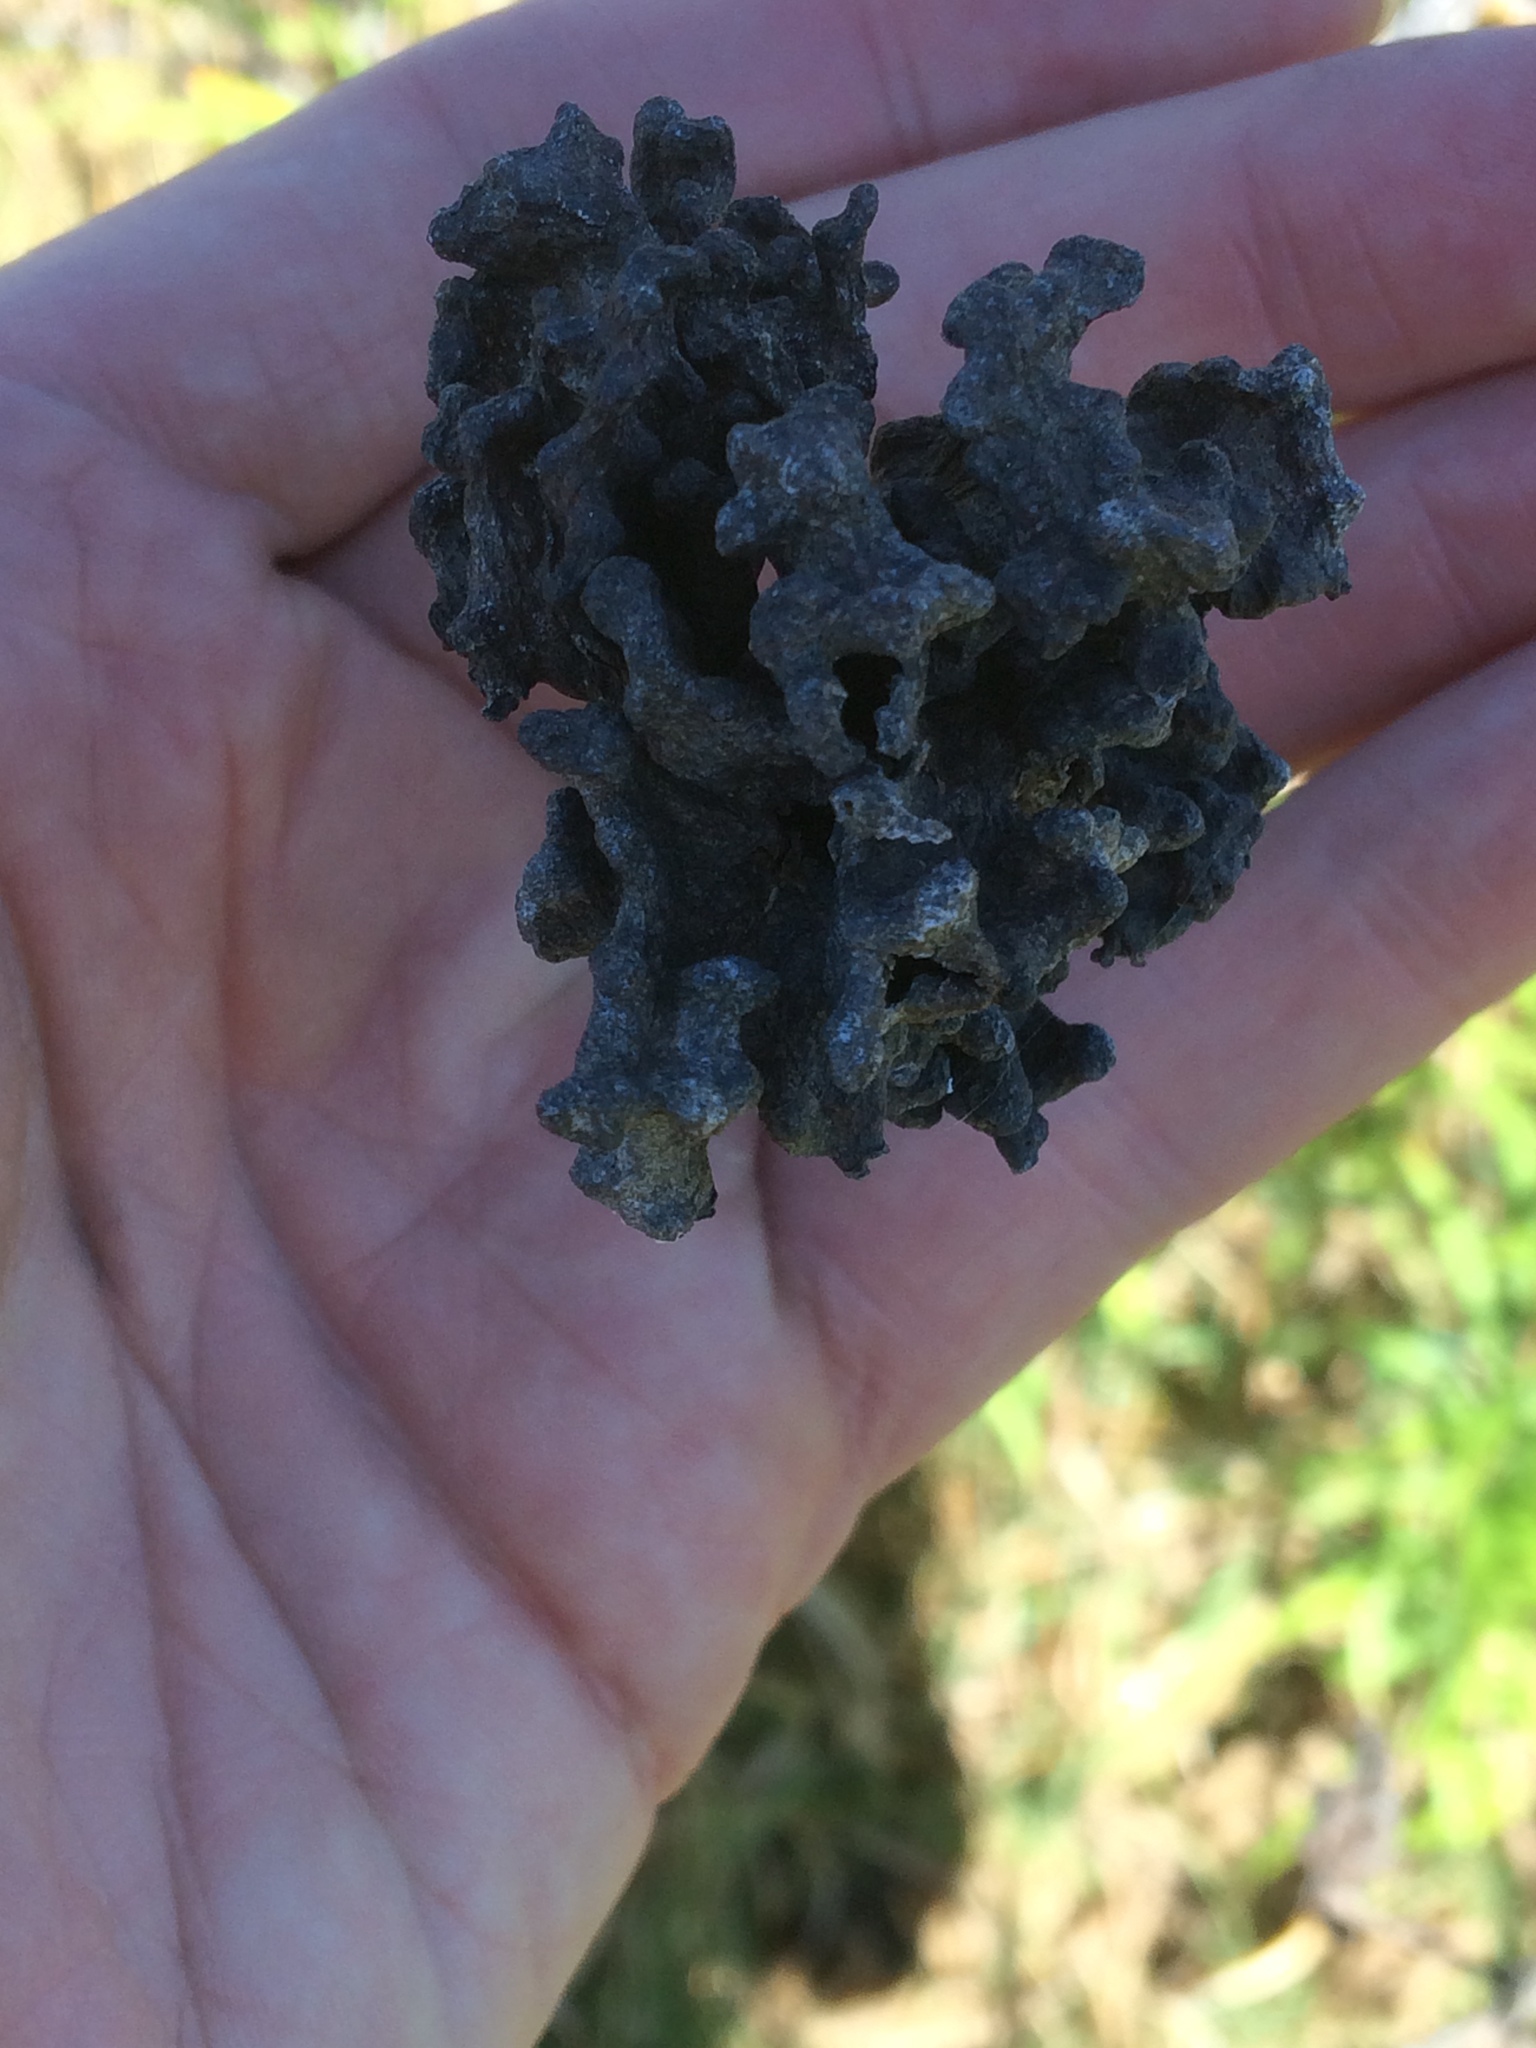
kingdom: Animalia
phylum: Arthropoda
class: Insecta
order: Hemiptera
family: Aphididae
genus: Mordwilkoja
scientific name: Mordwilkoja vagabunda
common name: Poplar vagabond aphid
